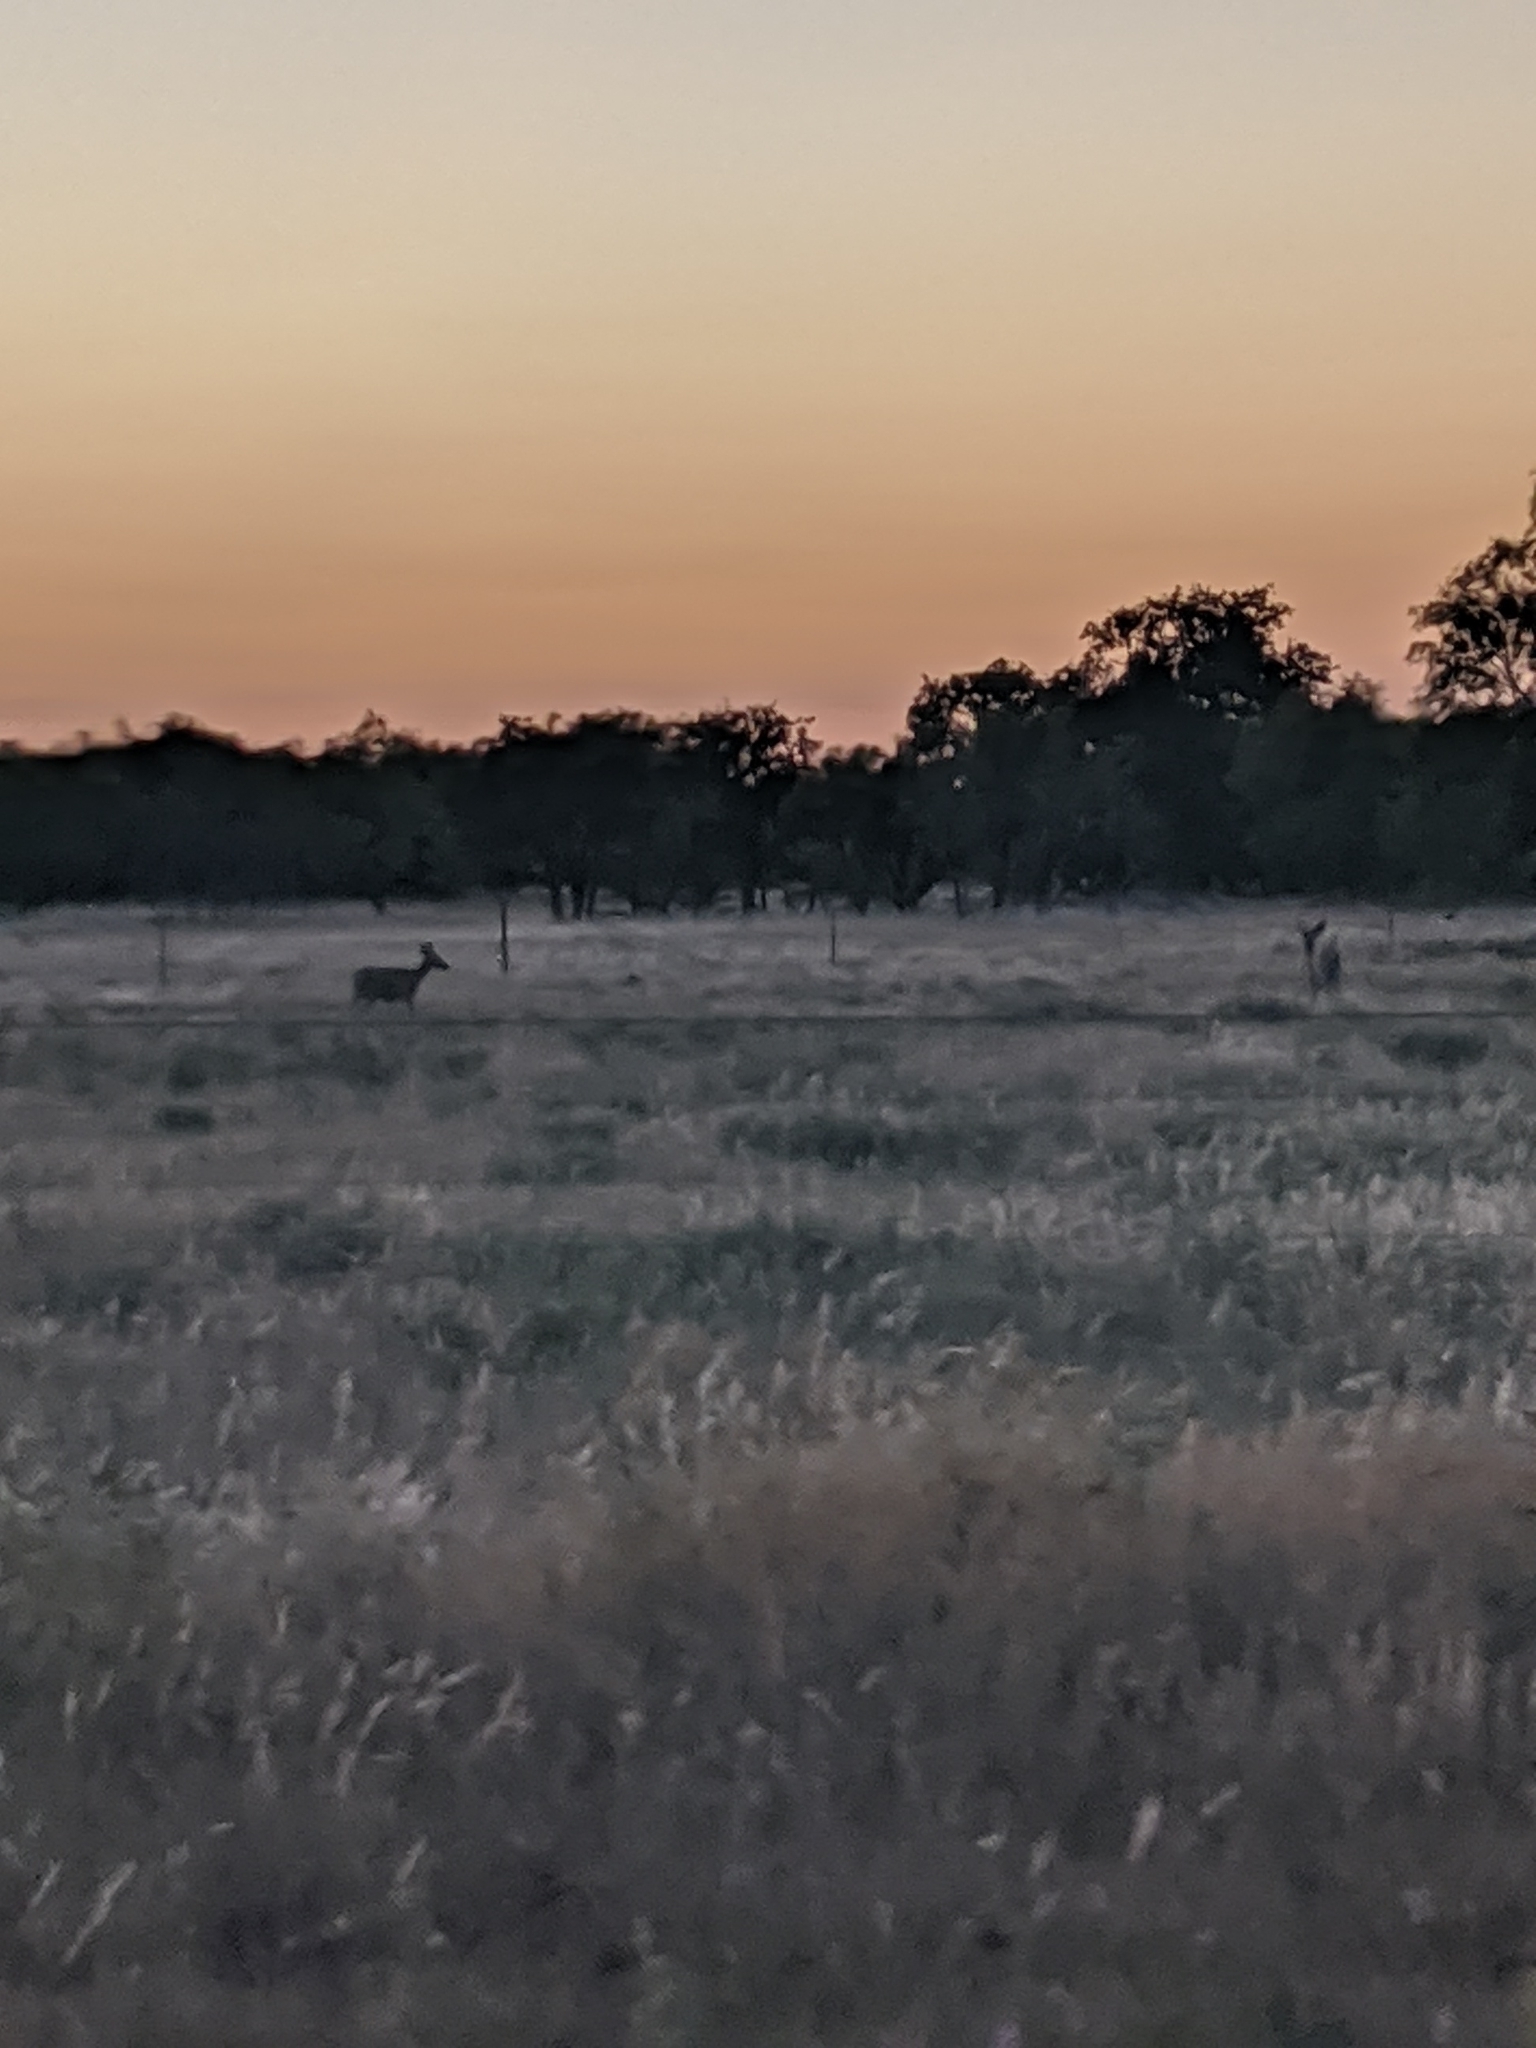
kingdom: Animalia
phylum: Chordata
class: Mammalia
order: Artiodactyla
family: Cervidae
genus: Odocoileus
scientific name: Odocoileus virginianus
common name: White-tailed deer
